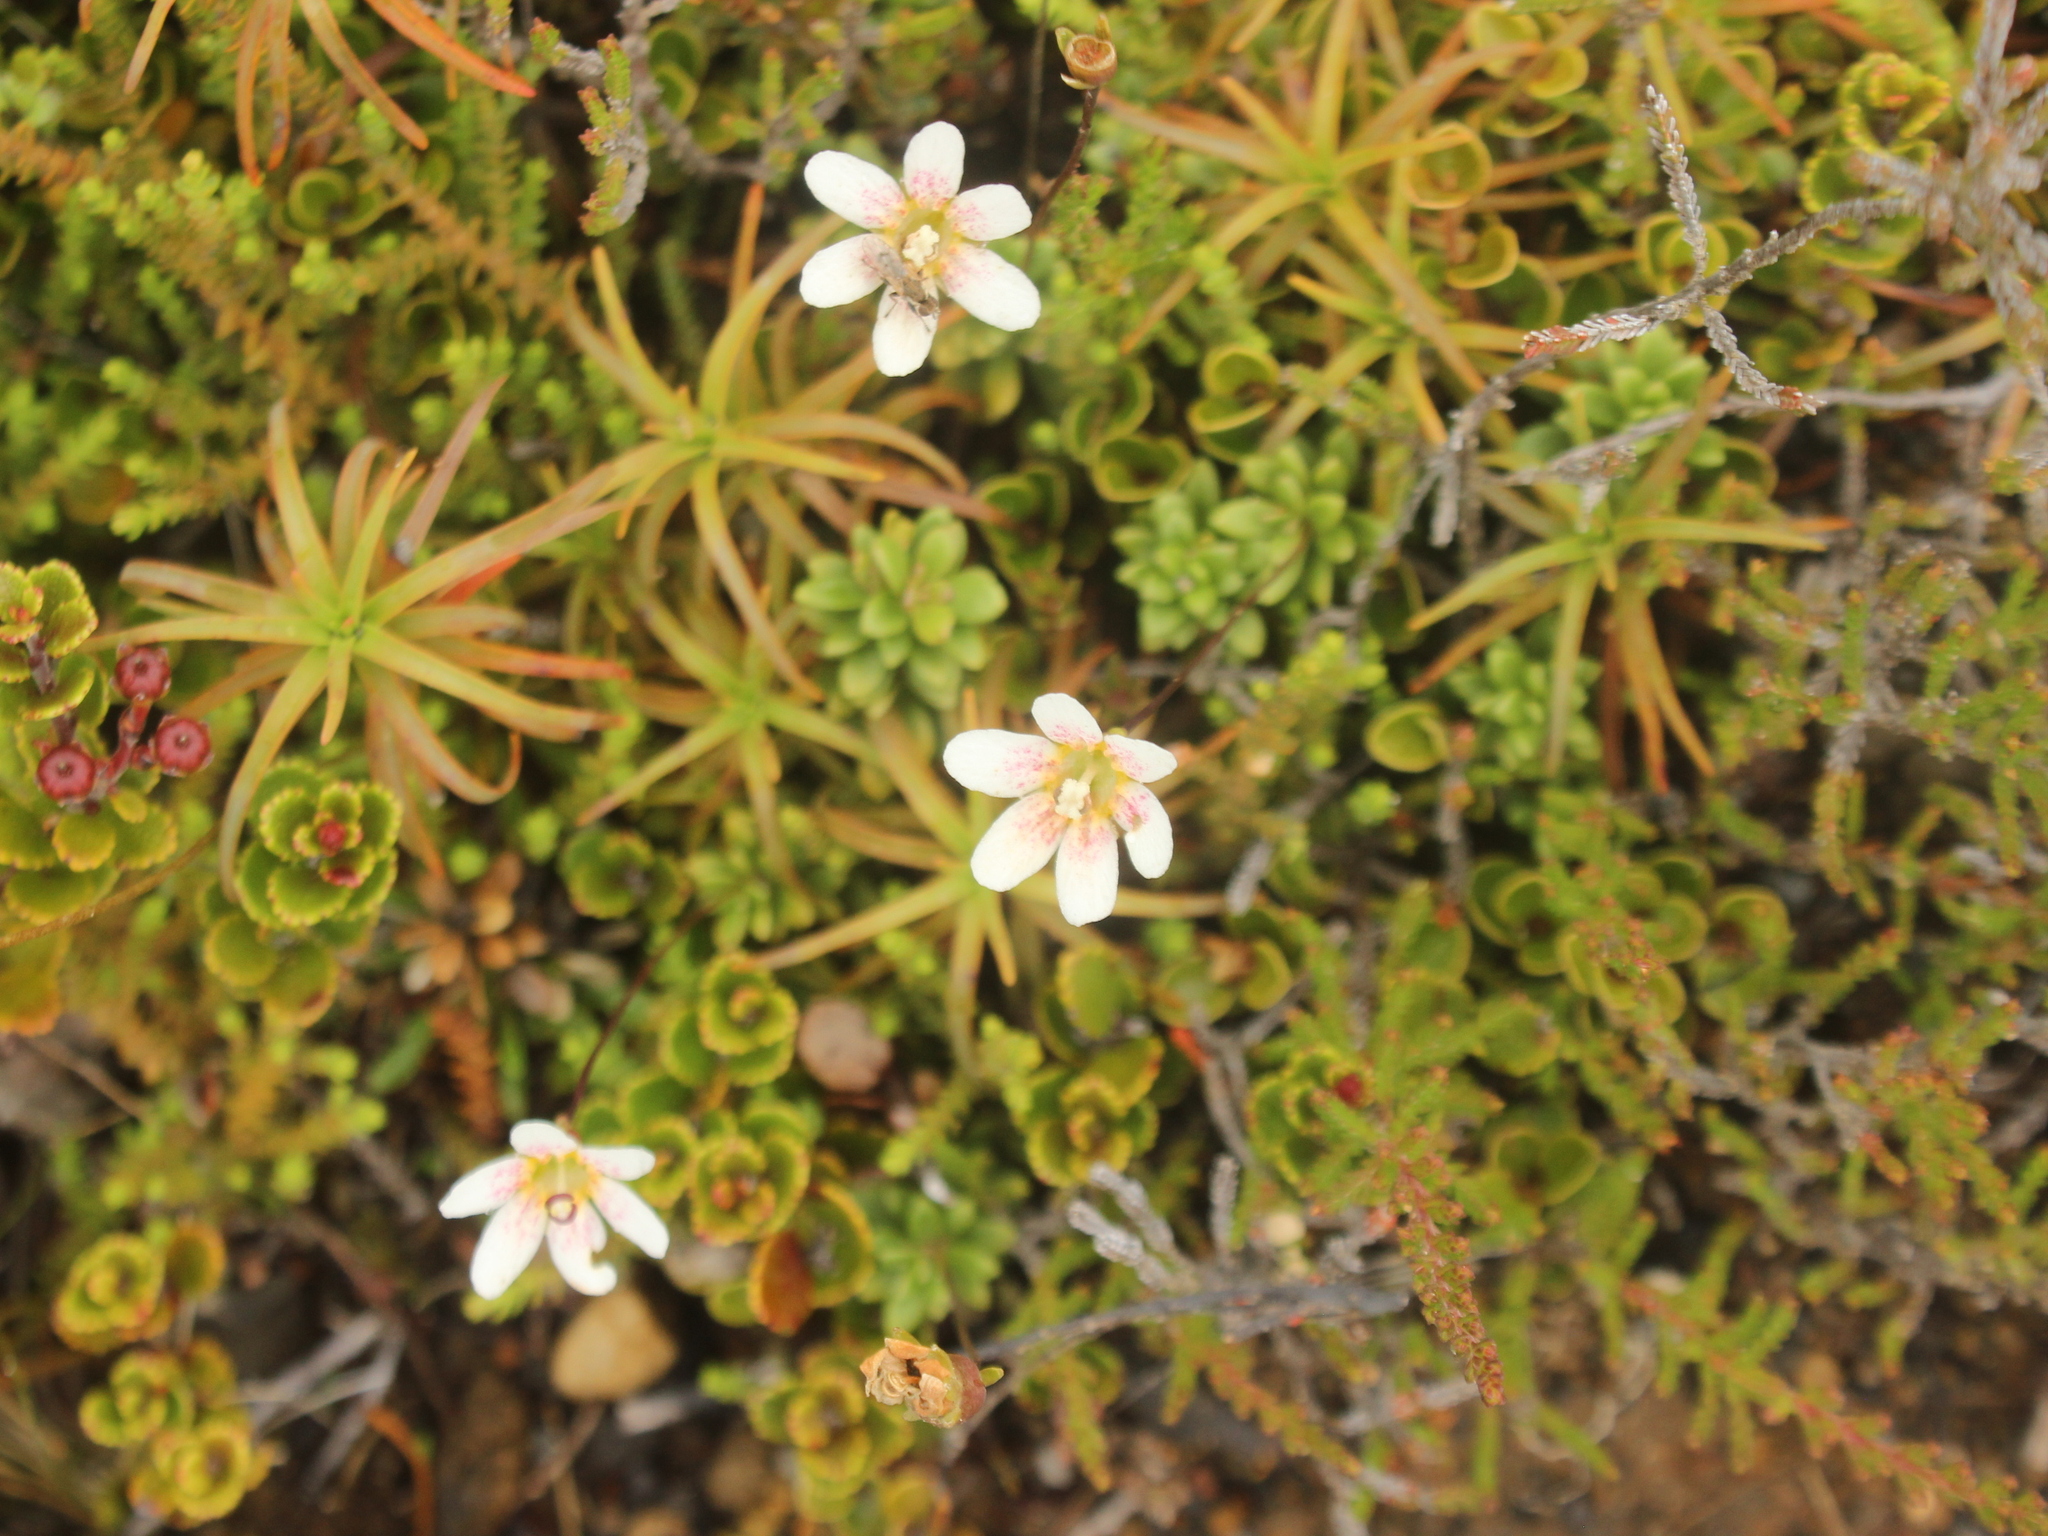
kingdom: Plantae
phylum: Tracheophyta
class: Magnoliopsida
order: Asterales
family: Stylidiaceae
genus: Forstera
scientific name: Forstera tenella
